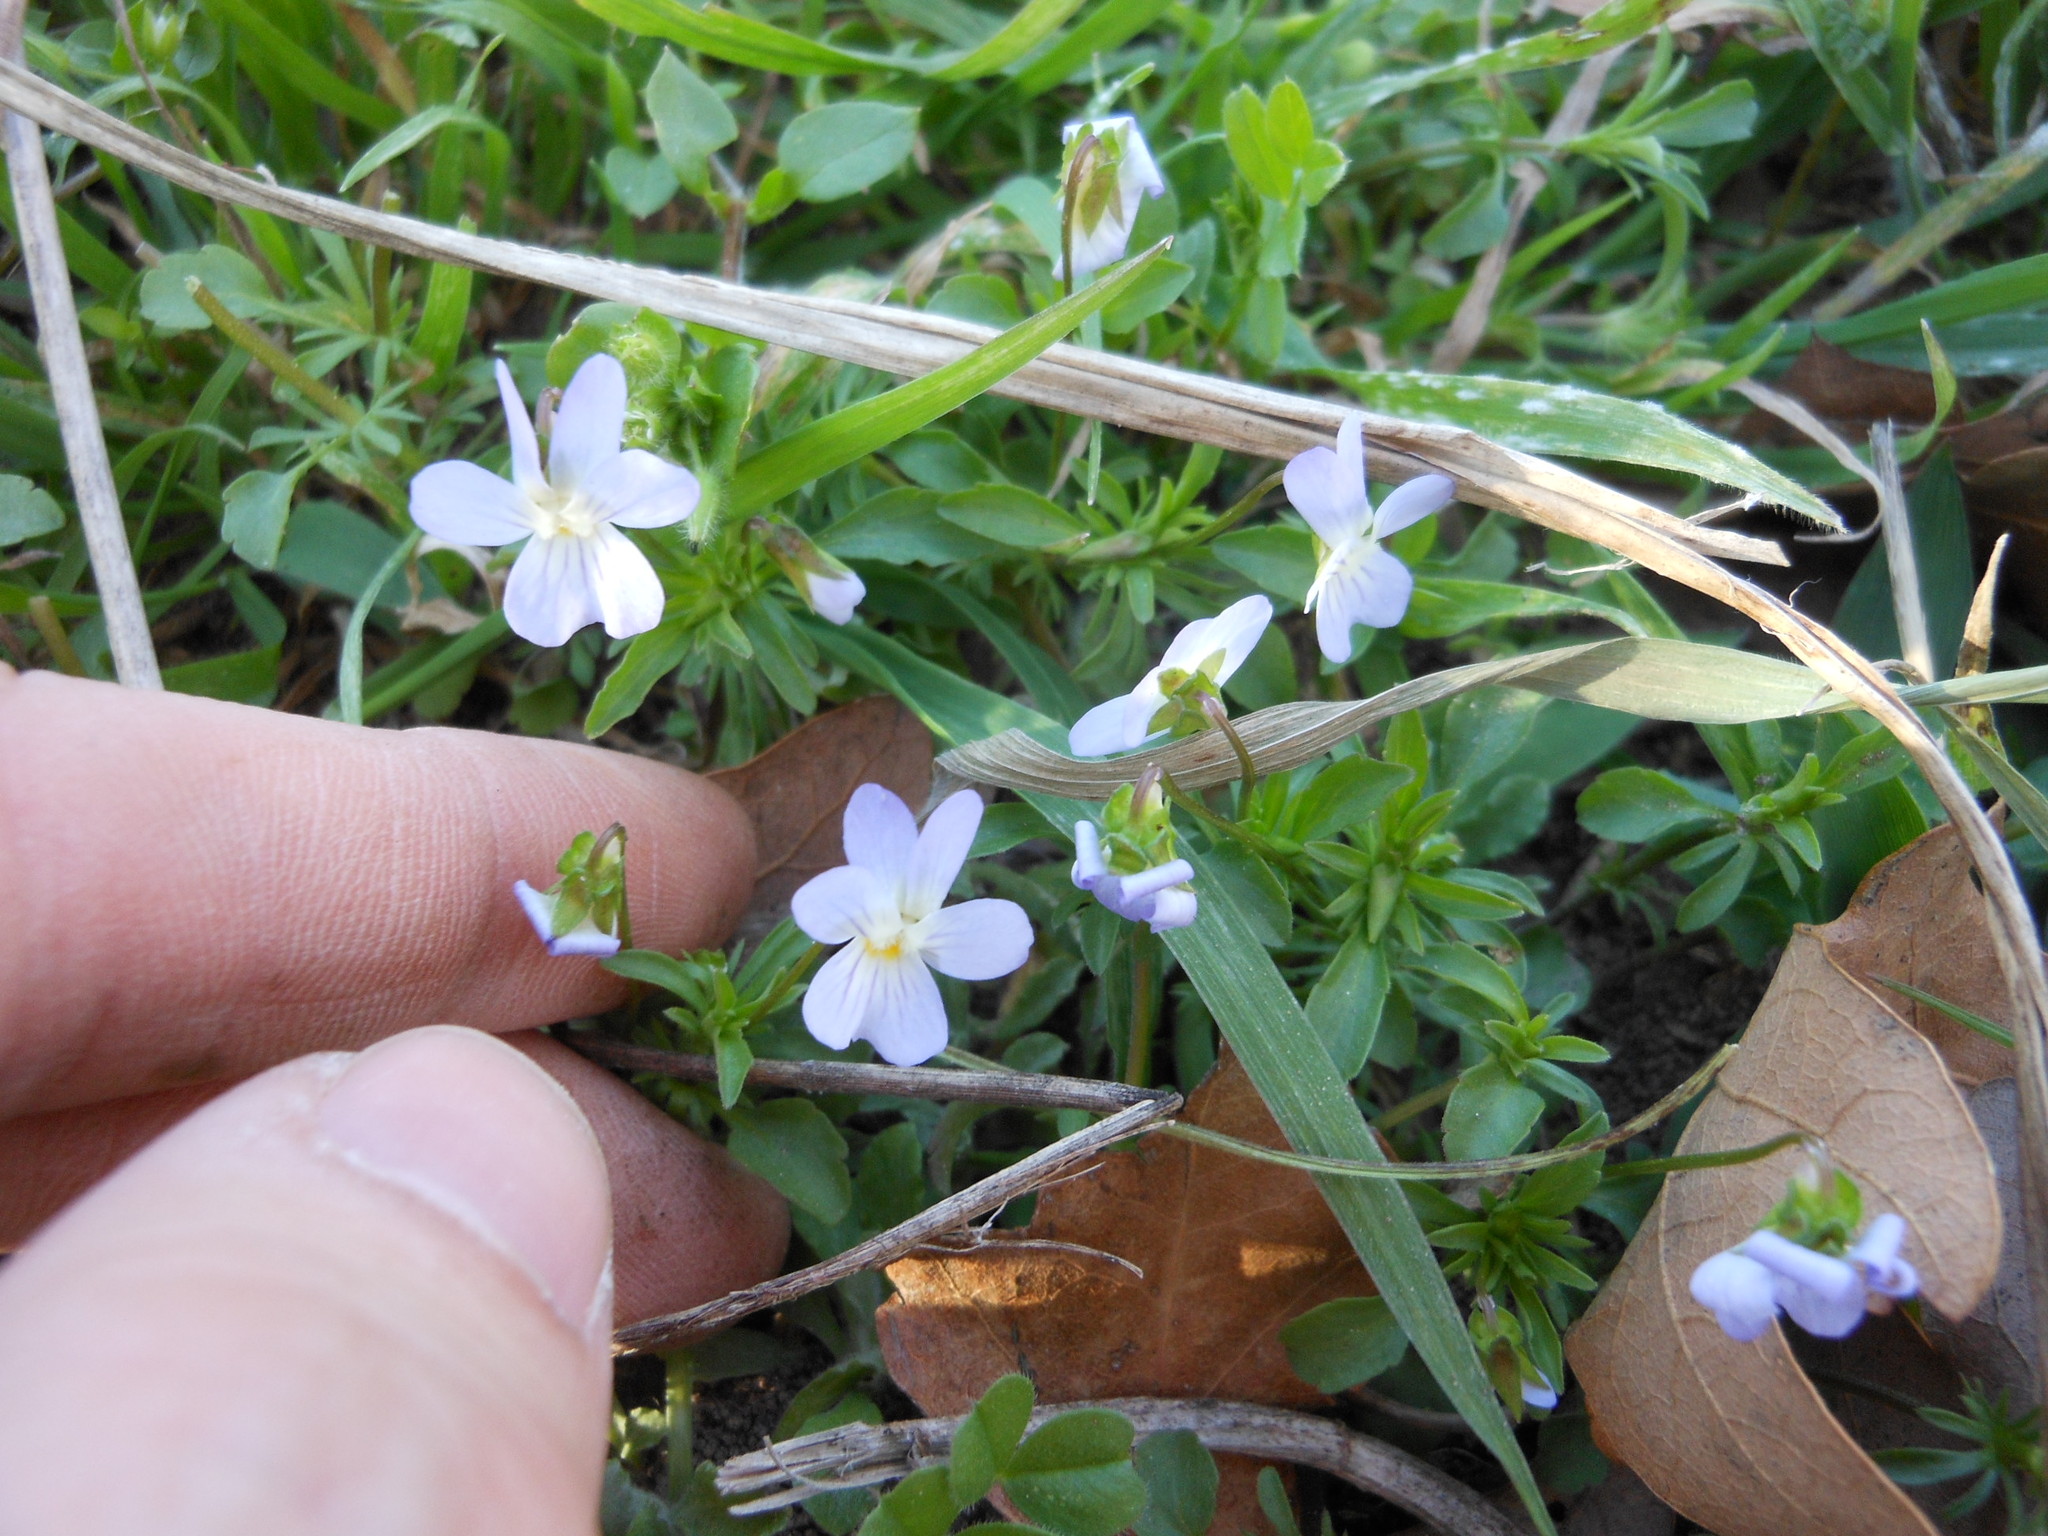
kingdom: Plantae
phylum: Tracheophyta
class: Magnoliopsida
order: Malpighiales
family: Violaceae
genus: Viola
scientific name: Viola rafinesquei
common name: American field pansy
